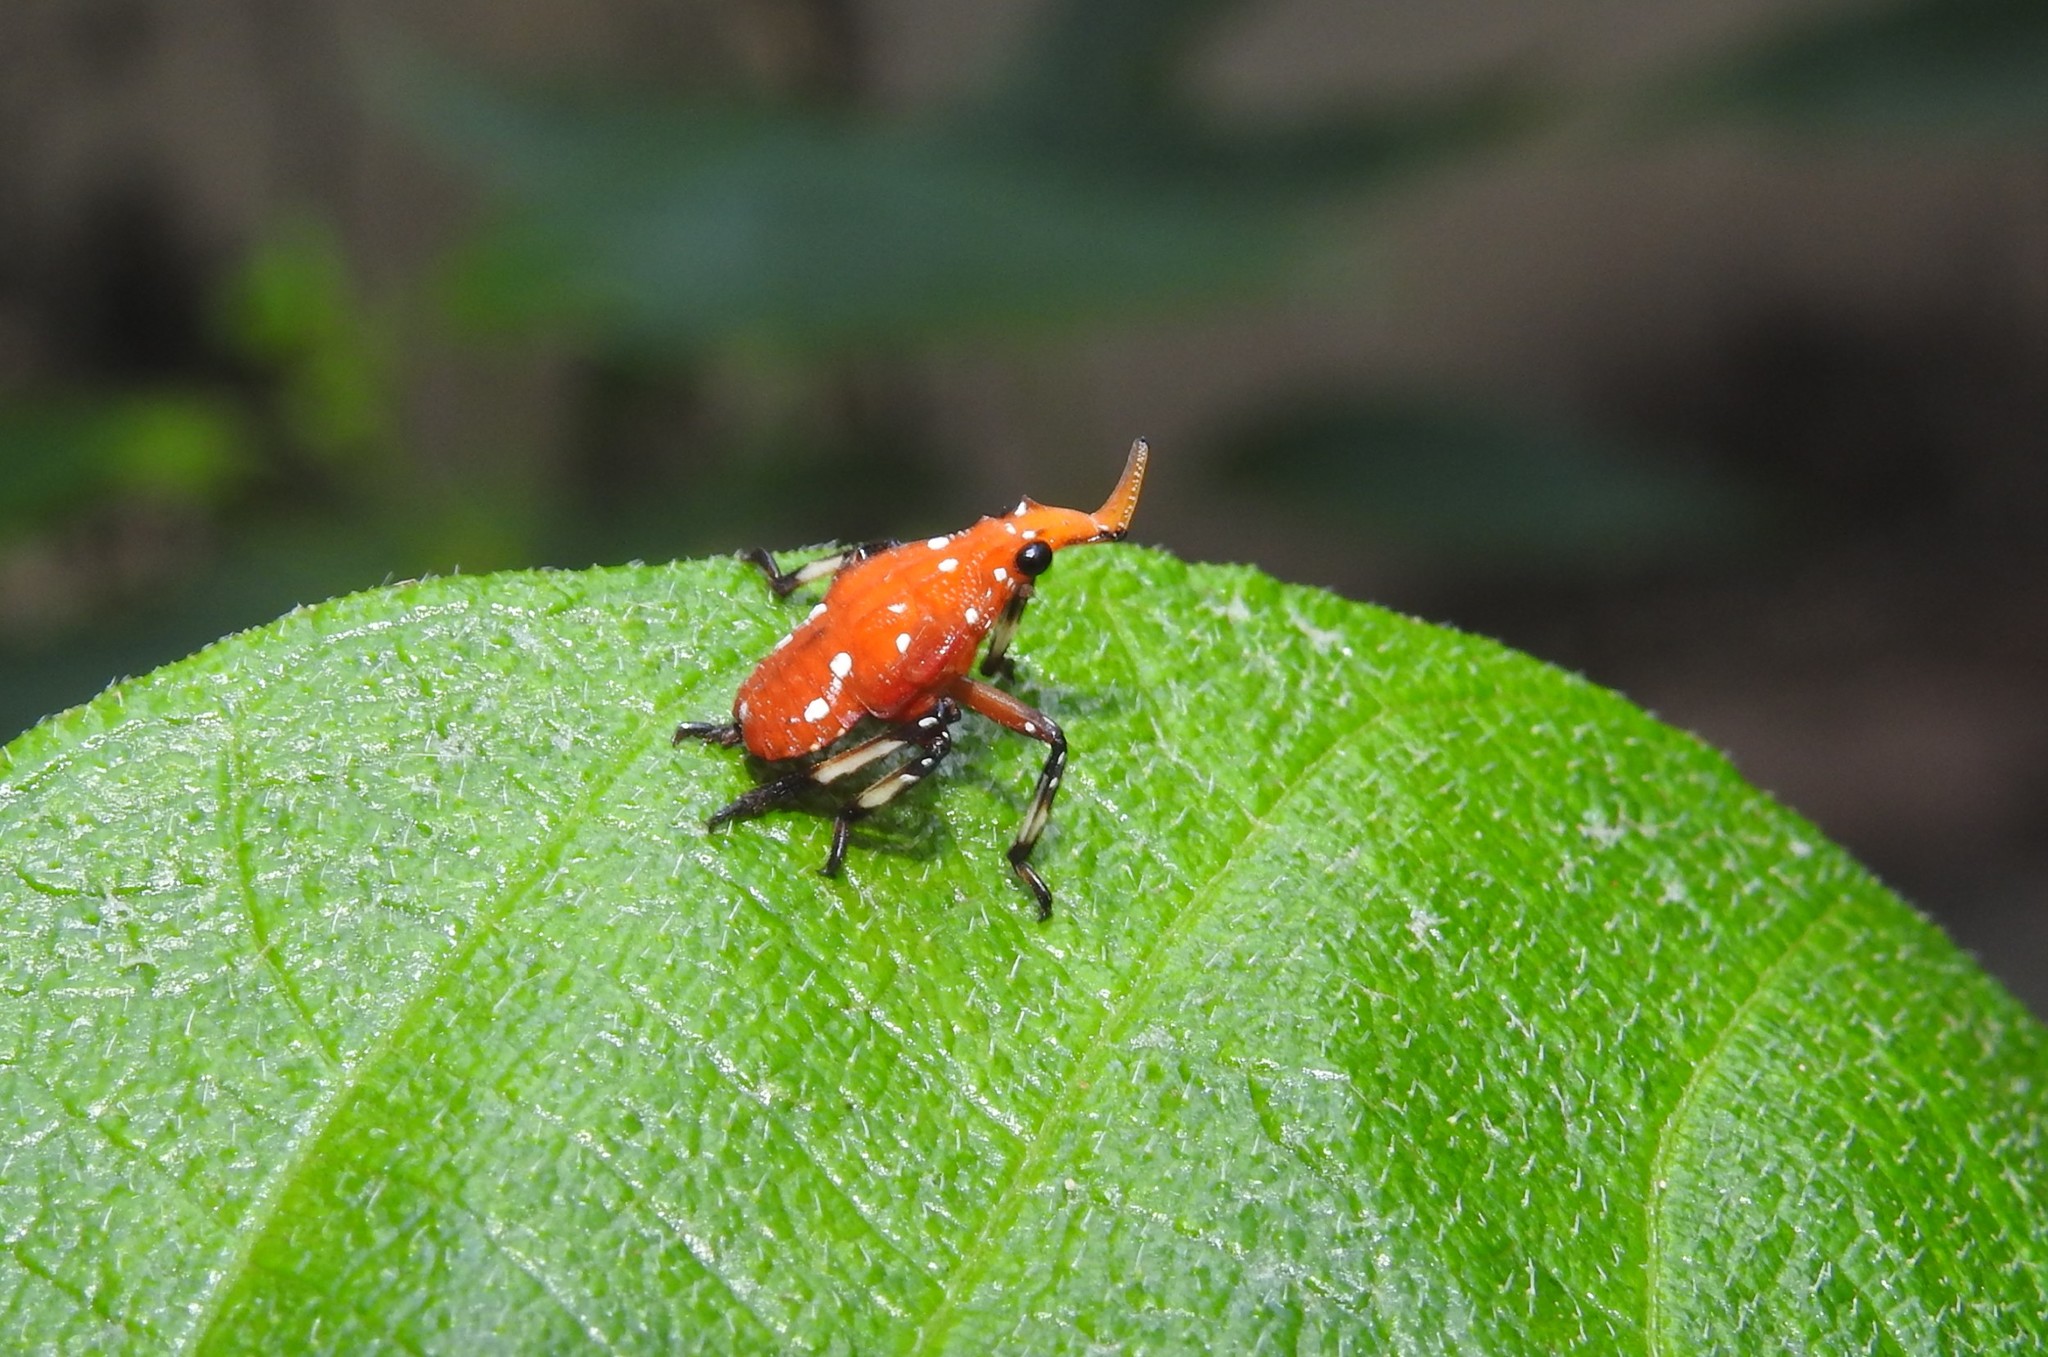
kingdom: Animalia
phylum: Arthropoda
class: Insecta
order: Hemiptera
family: Fulgoridae
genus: Kalidasa
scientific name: Kalidasa lanata
